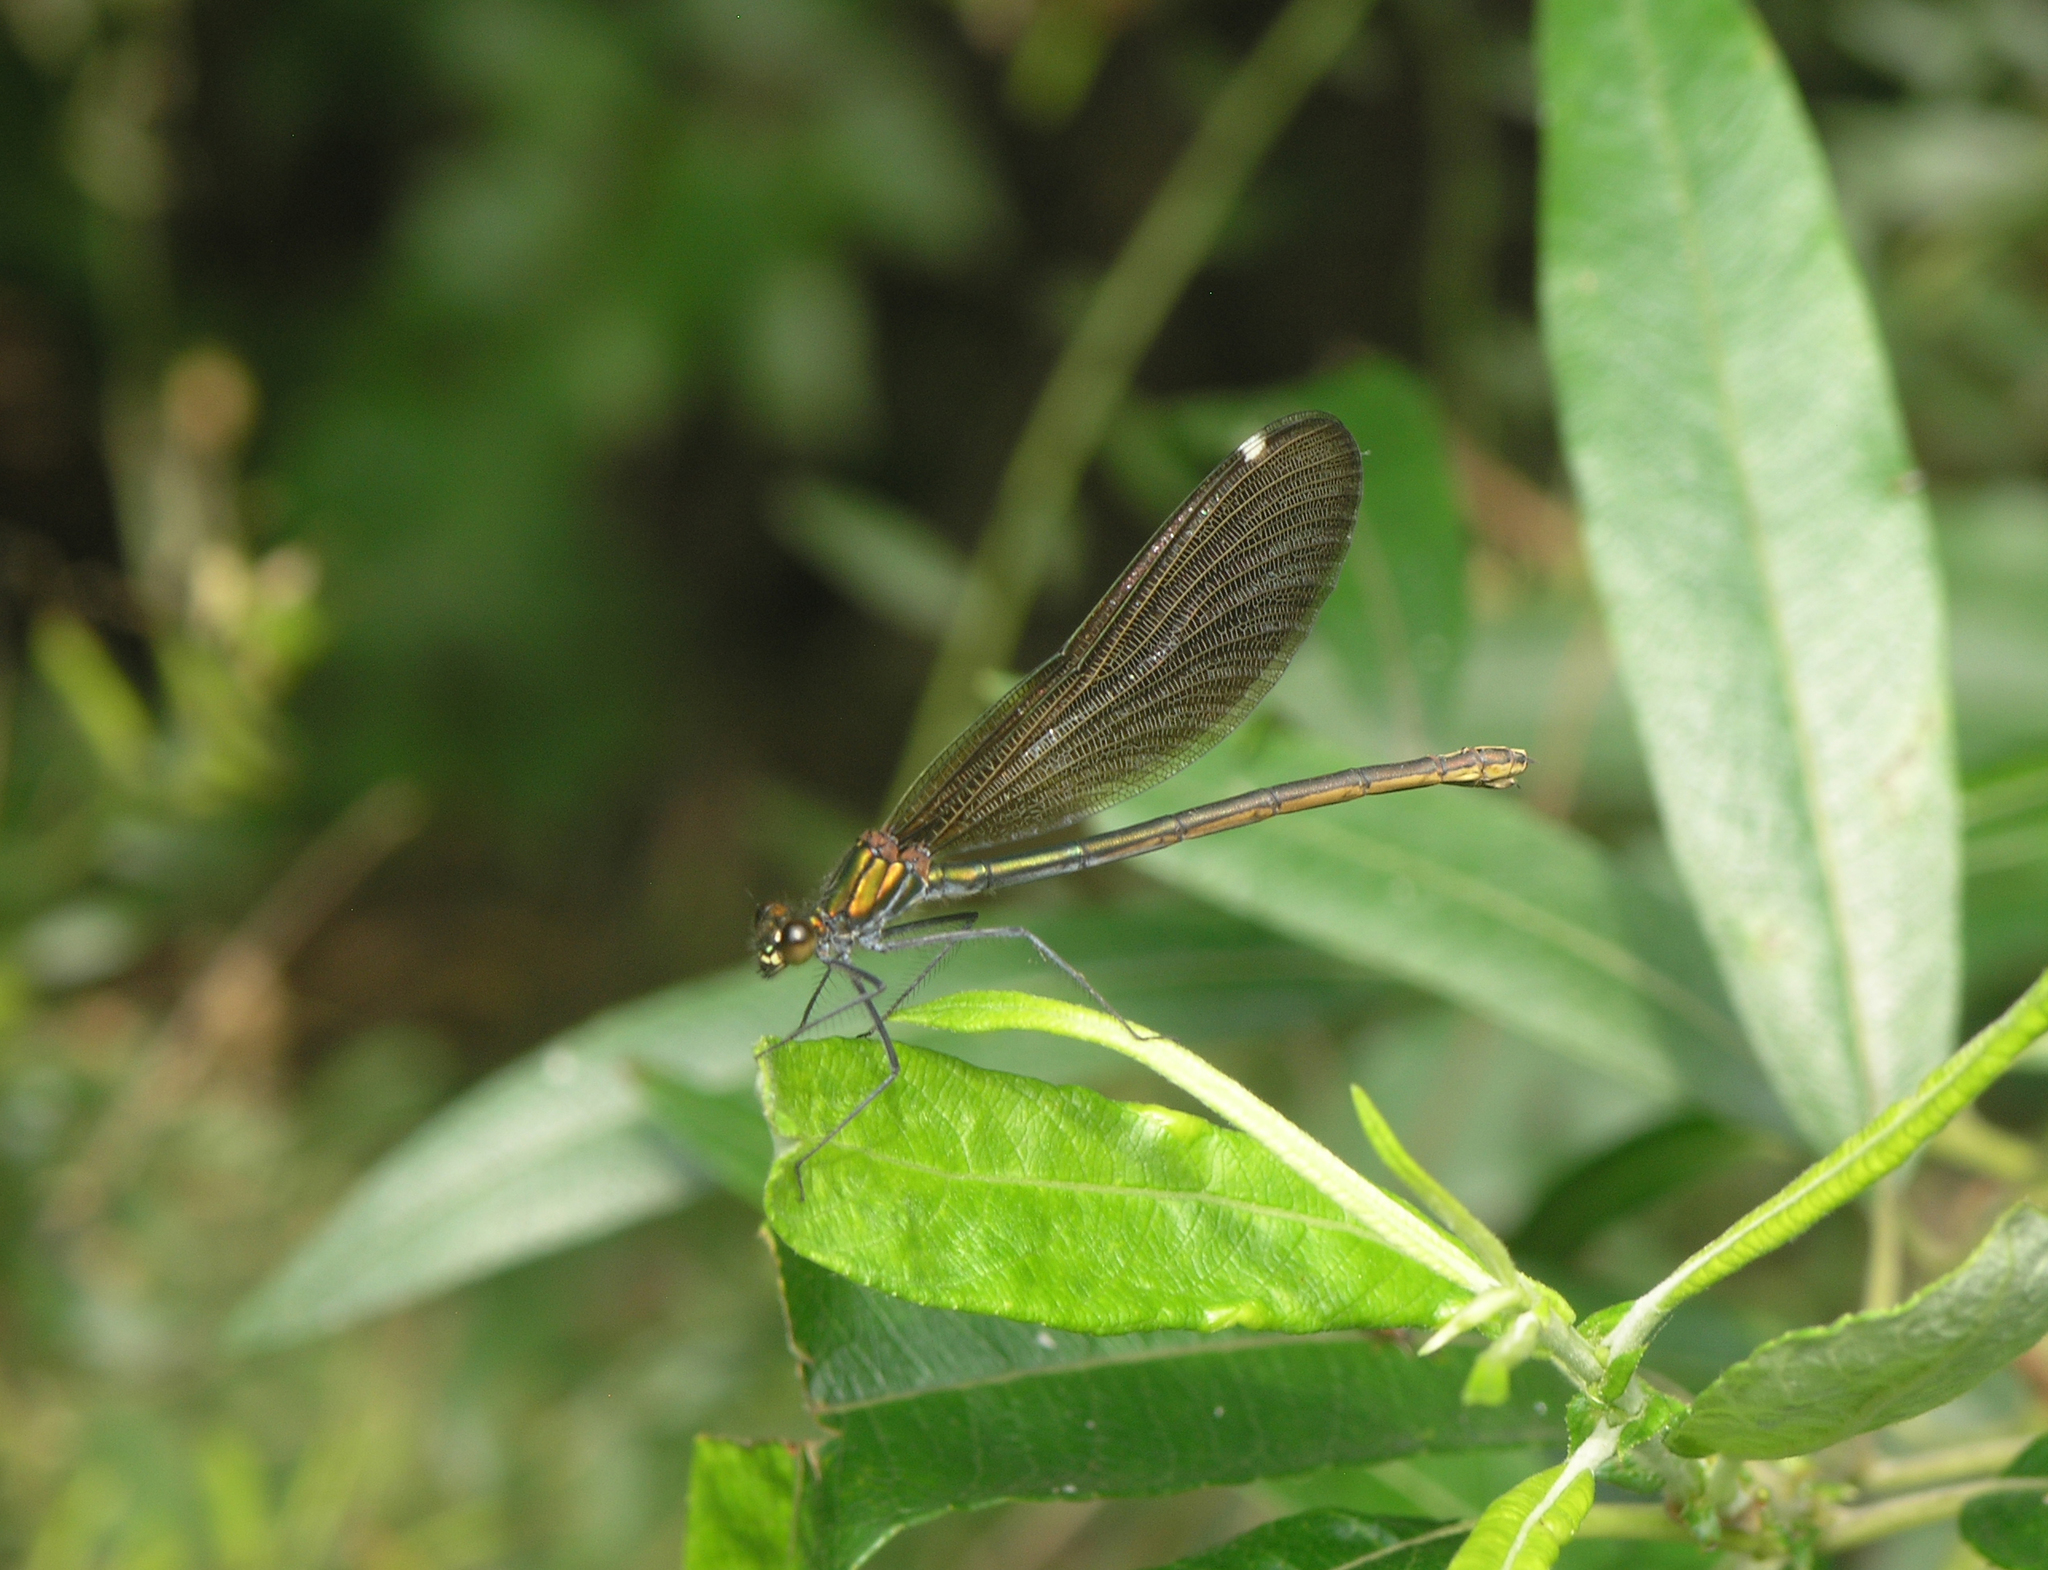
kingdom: Animalia
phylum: Arthropoda
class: Insecta
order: Odonata
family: Calopterygidae
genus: Calopteryx
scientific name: Calopteryx virgo
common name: Beautiful demoiselle
